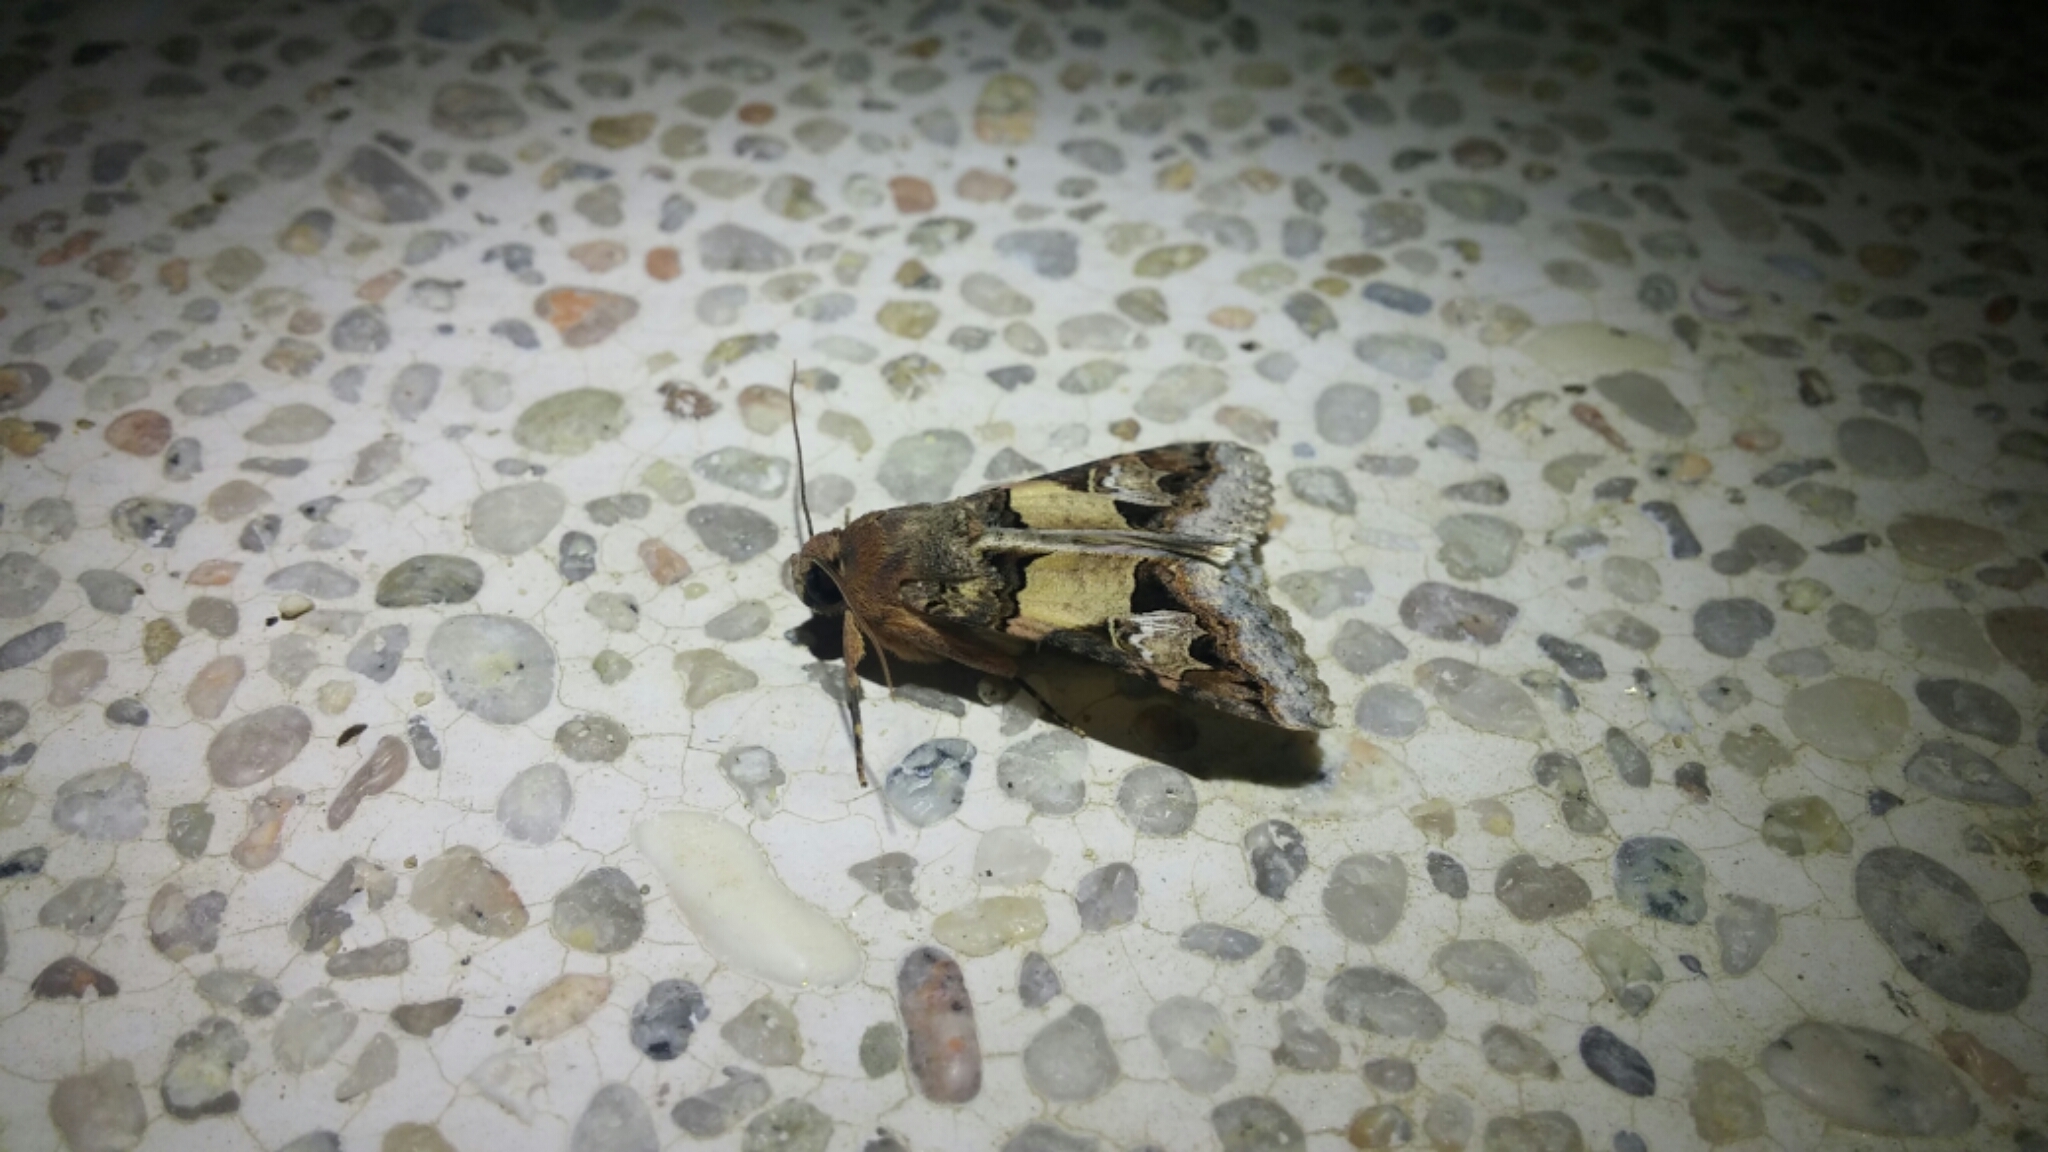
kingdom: Animalia
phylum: Arthropoda
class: Insecta
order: Lepidoptera
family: Erebidae
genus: Melipotis
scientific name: Melipotis novanda
